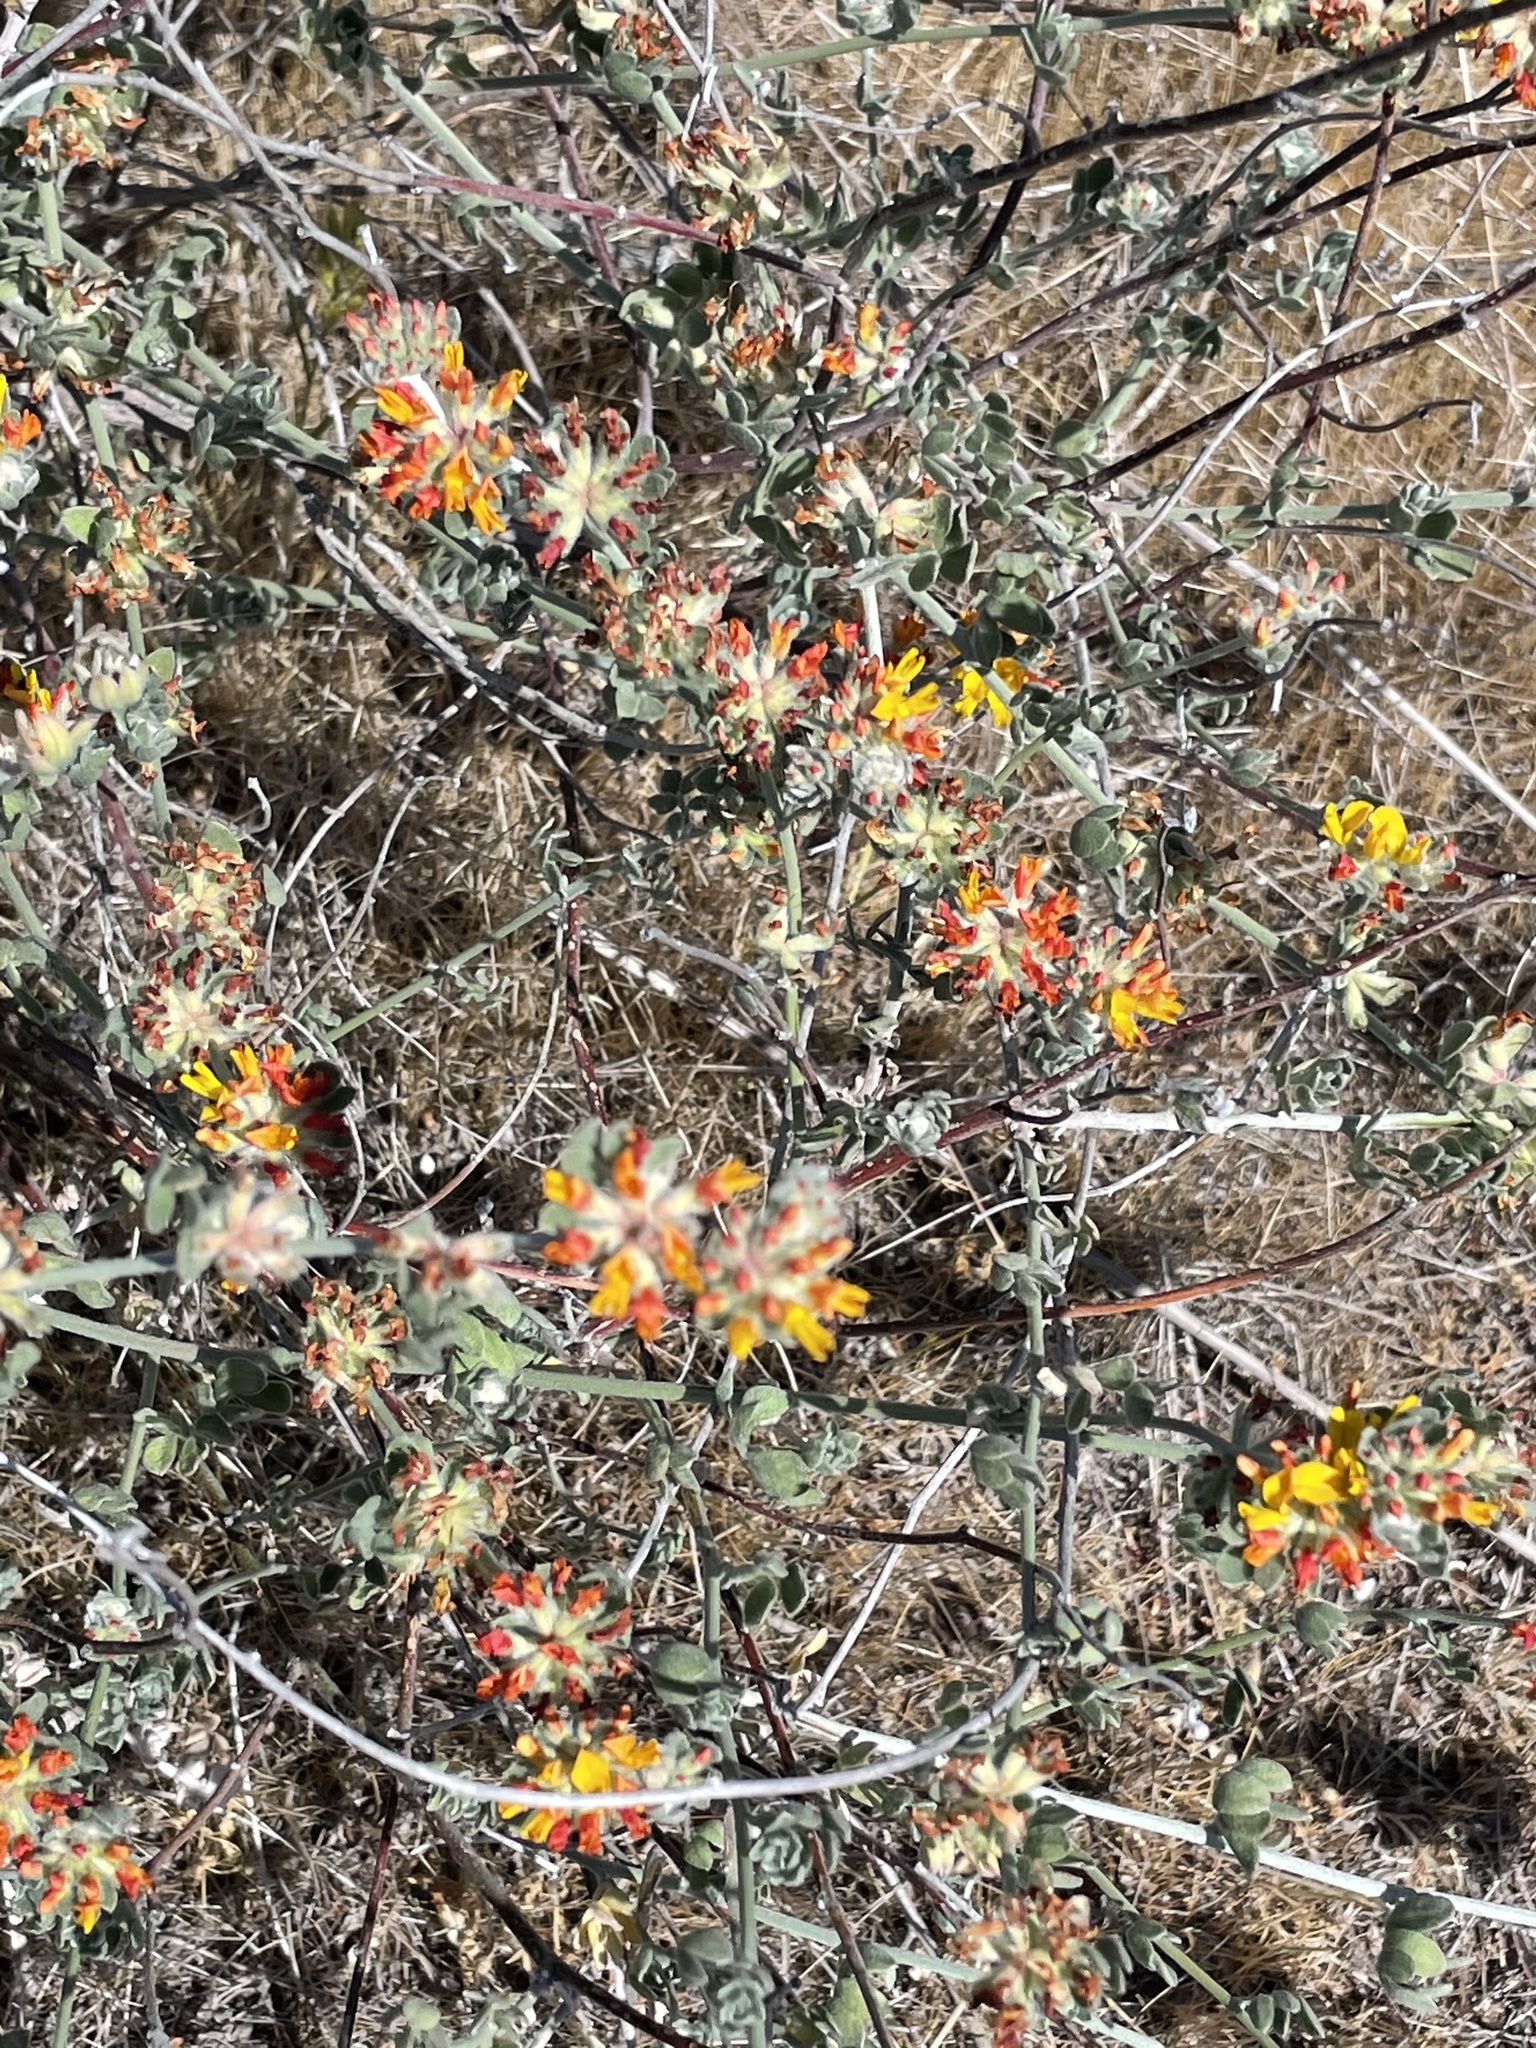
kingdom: Plantae
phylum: Tracheophyta
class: Magnoliopsida
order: Fabales
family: Fabaceae
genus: Acmispon
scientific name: Acmispon argophyllus
